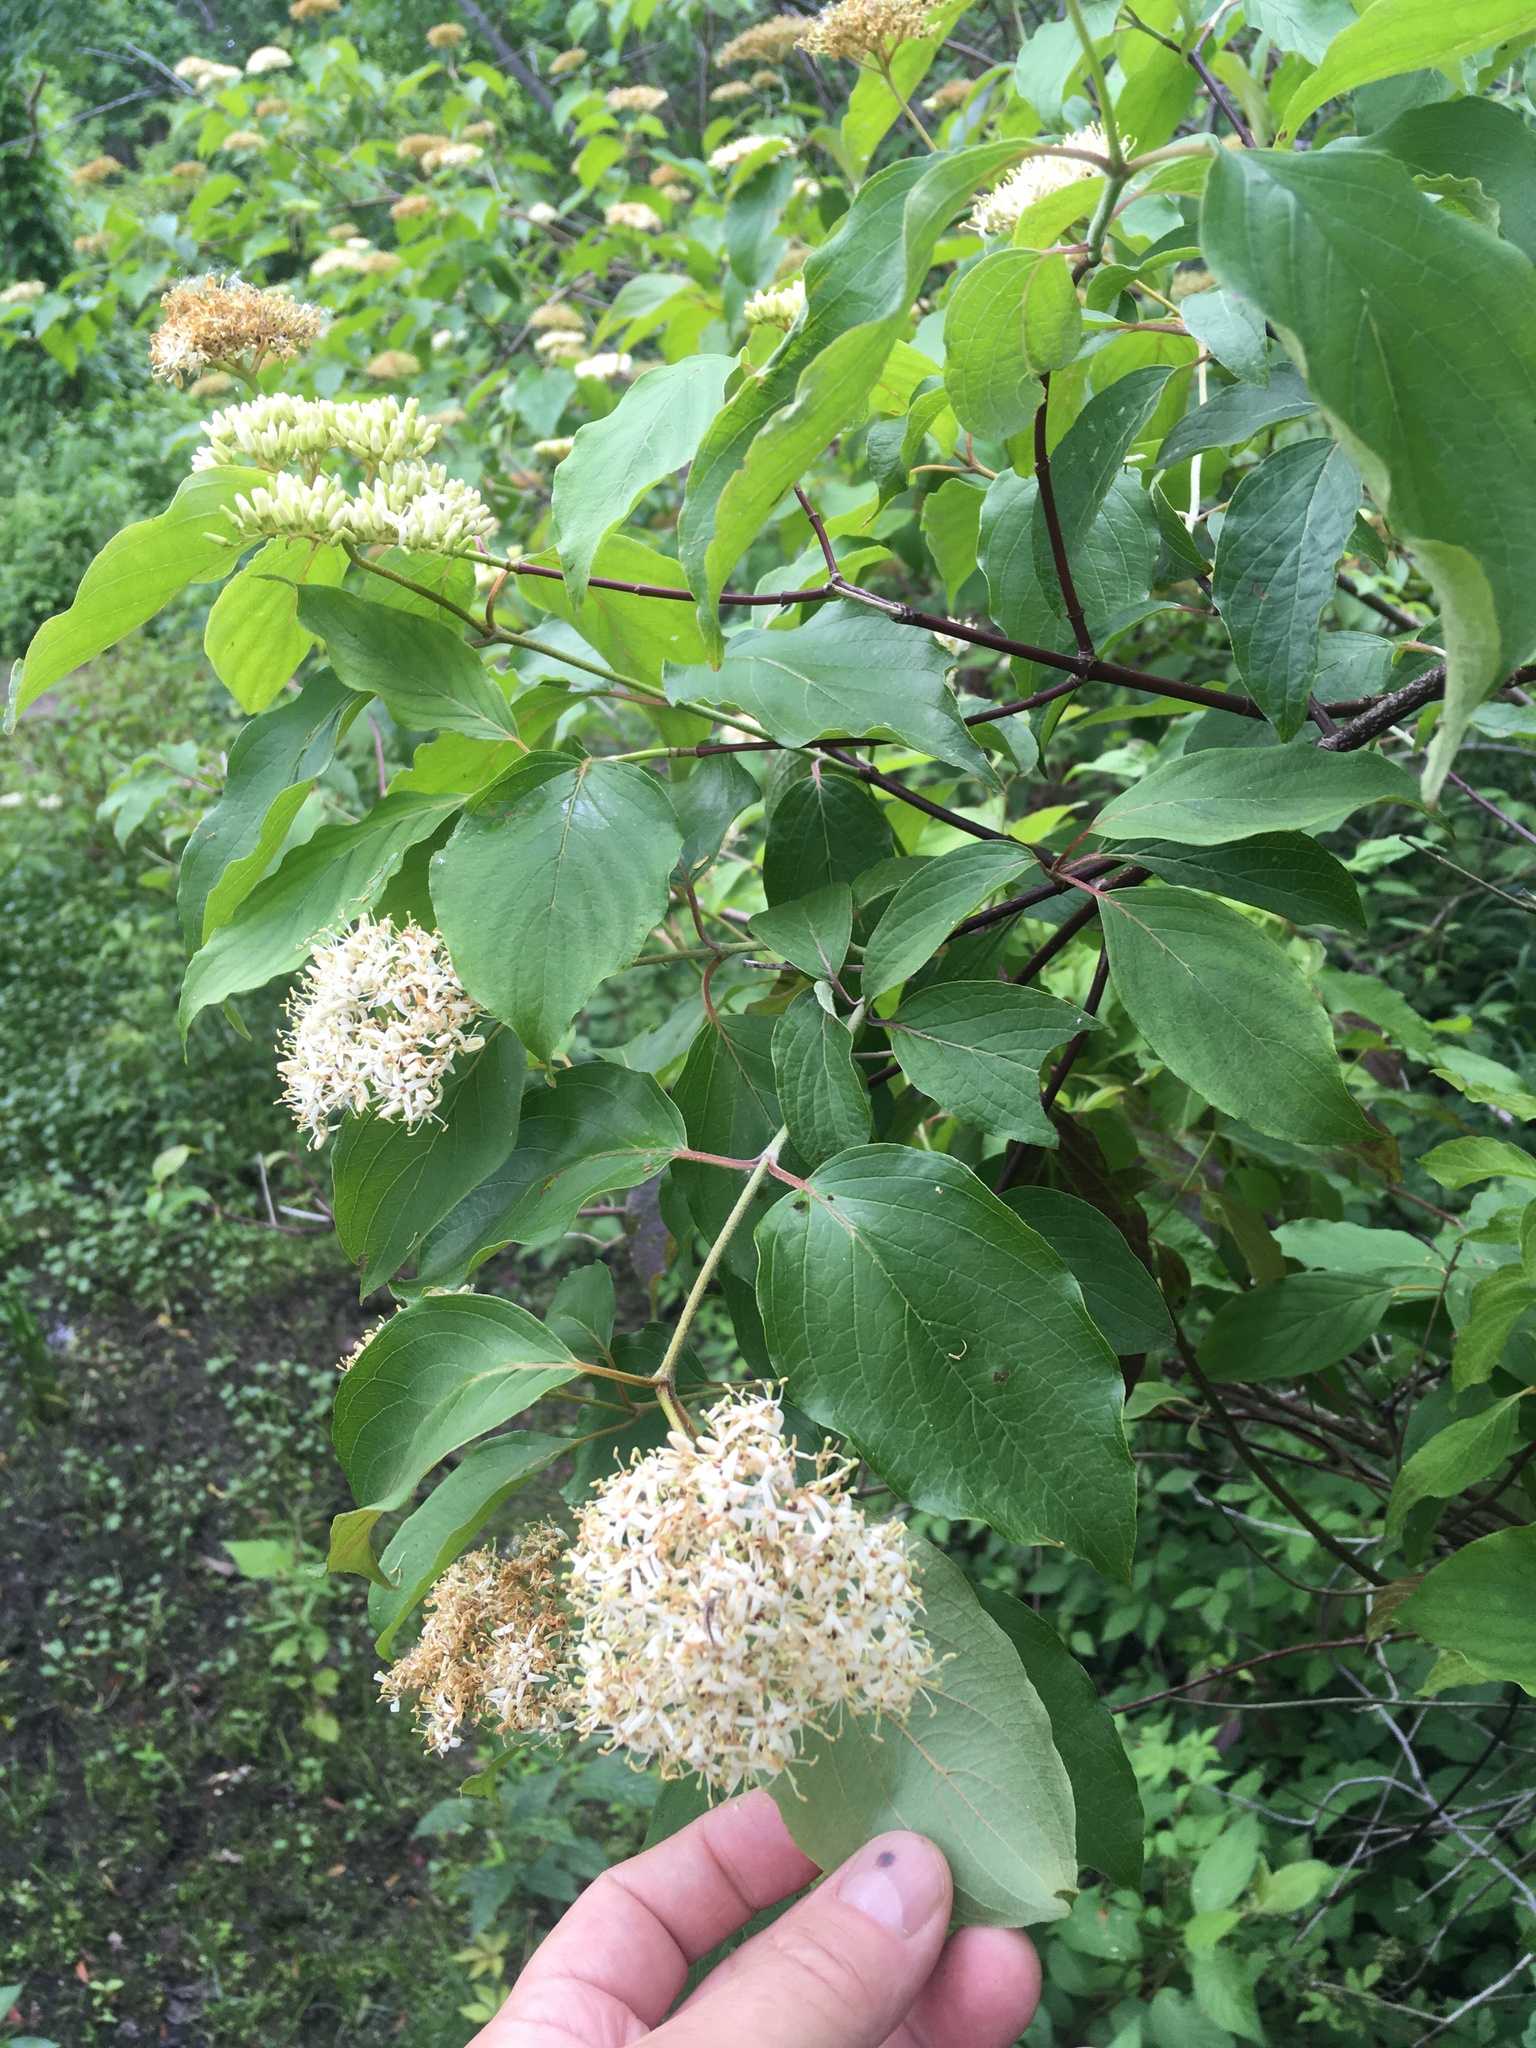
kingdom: Plantae
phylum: Tracheophyta
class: Magnoliopsida
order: Cornales
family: Cornaceae
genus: Cornus
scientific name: Cornus sericea
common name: Red-osier dogwood
